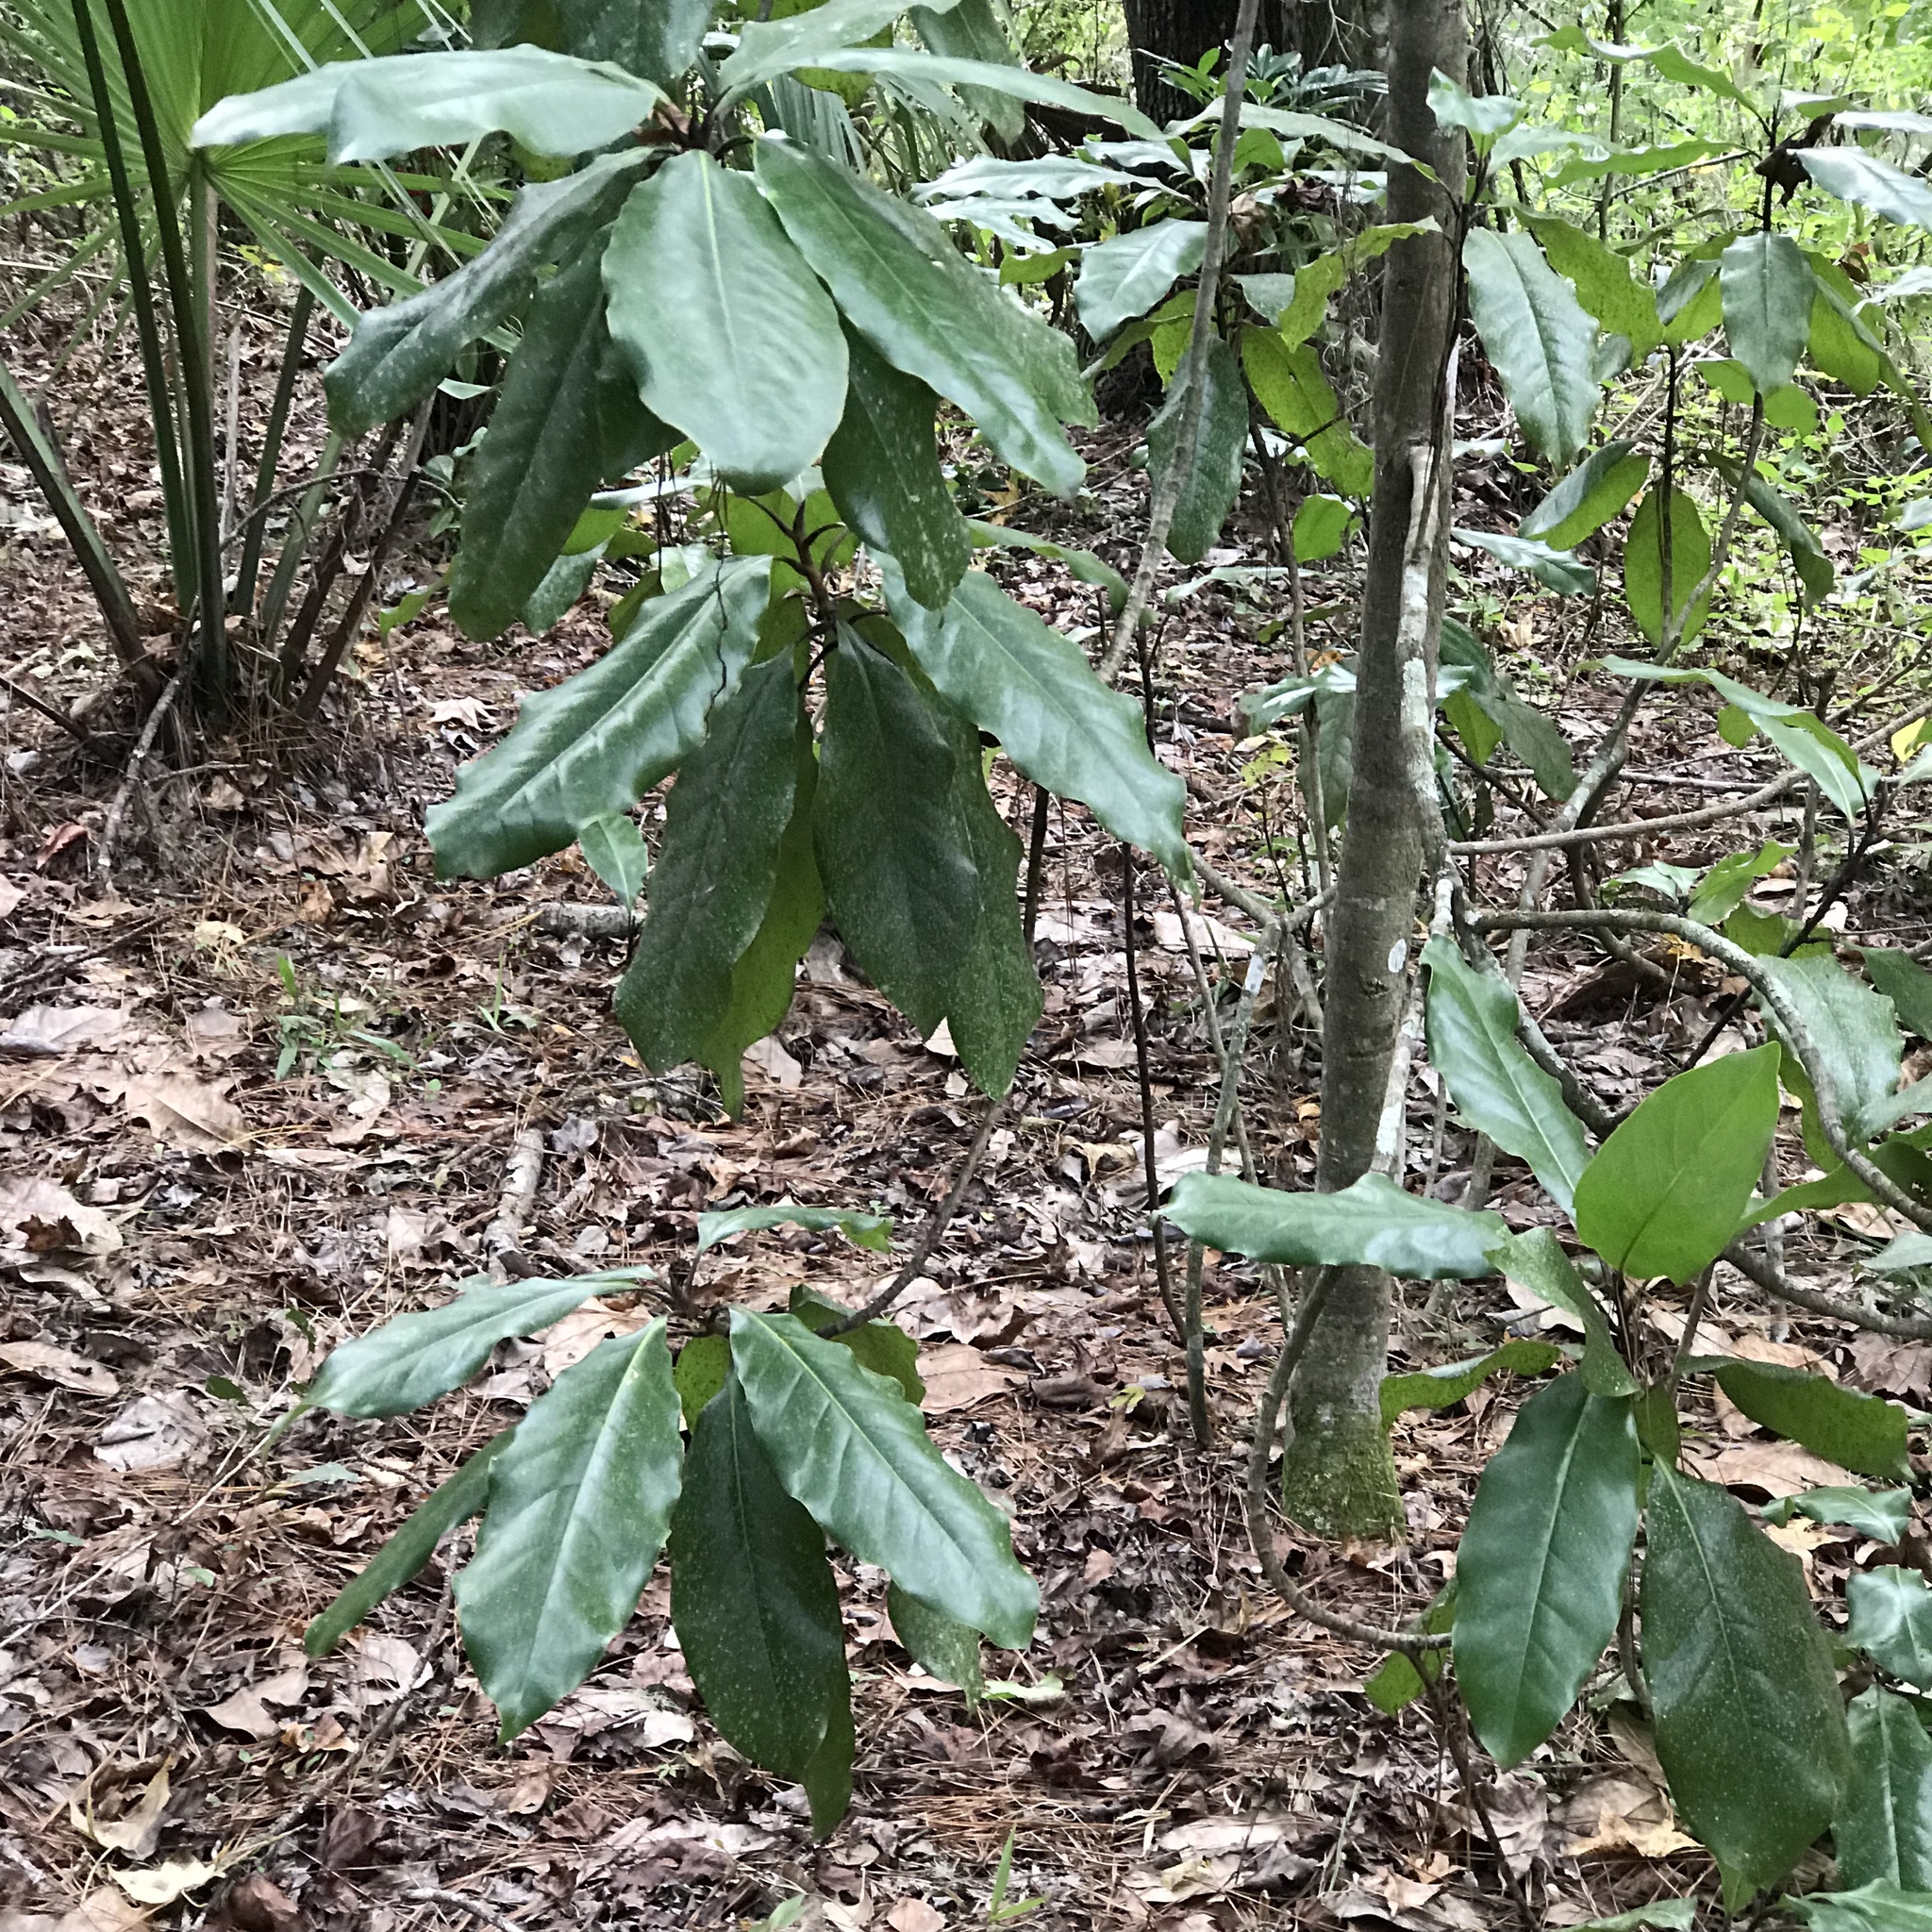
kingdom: Plantae
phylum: Tracheophyta
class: Magnoliopsida
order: Magnoliales
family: Magnoliaceae
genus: Magnolia
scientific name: Magnolia grandiflora
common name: Southern magnolia
